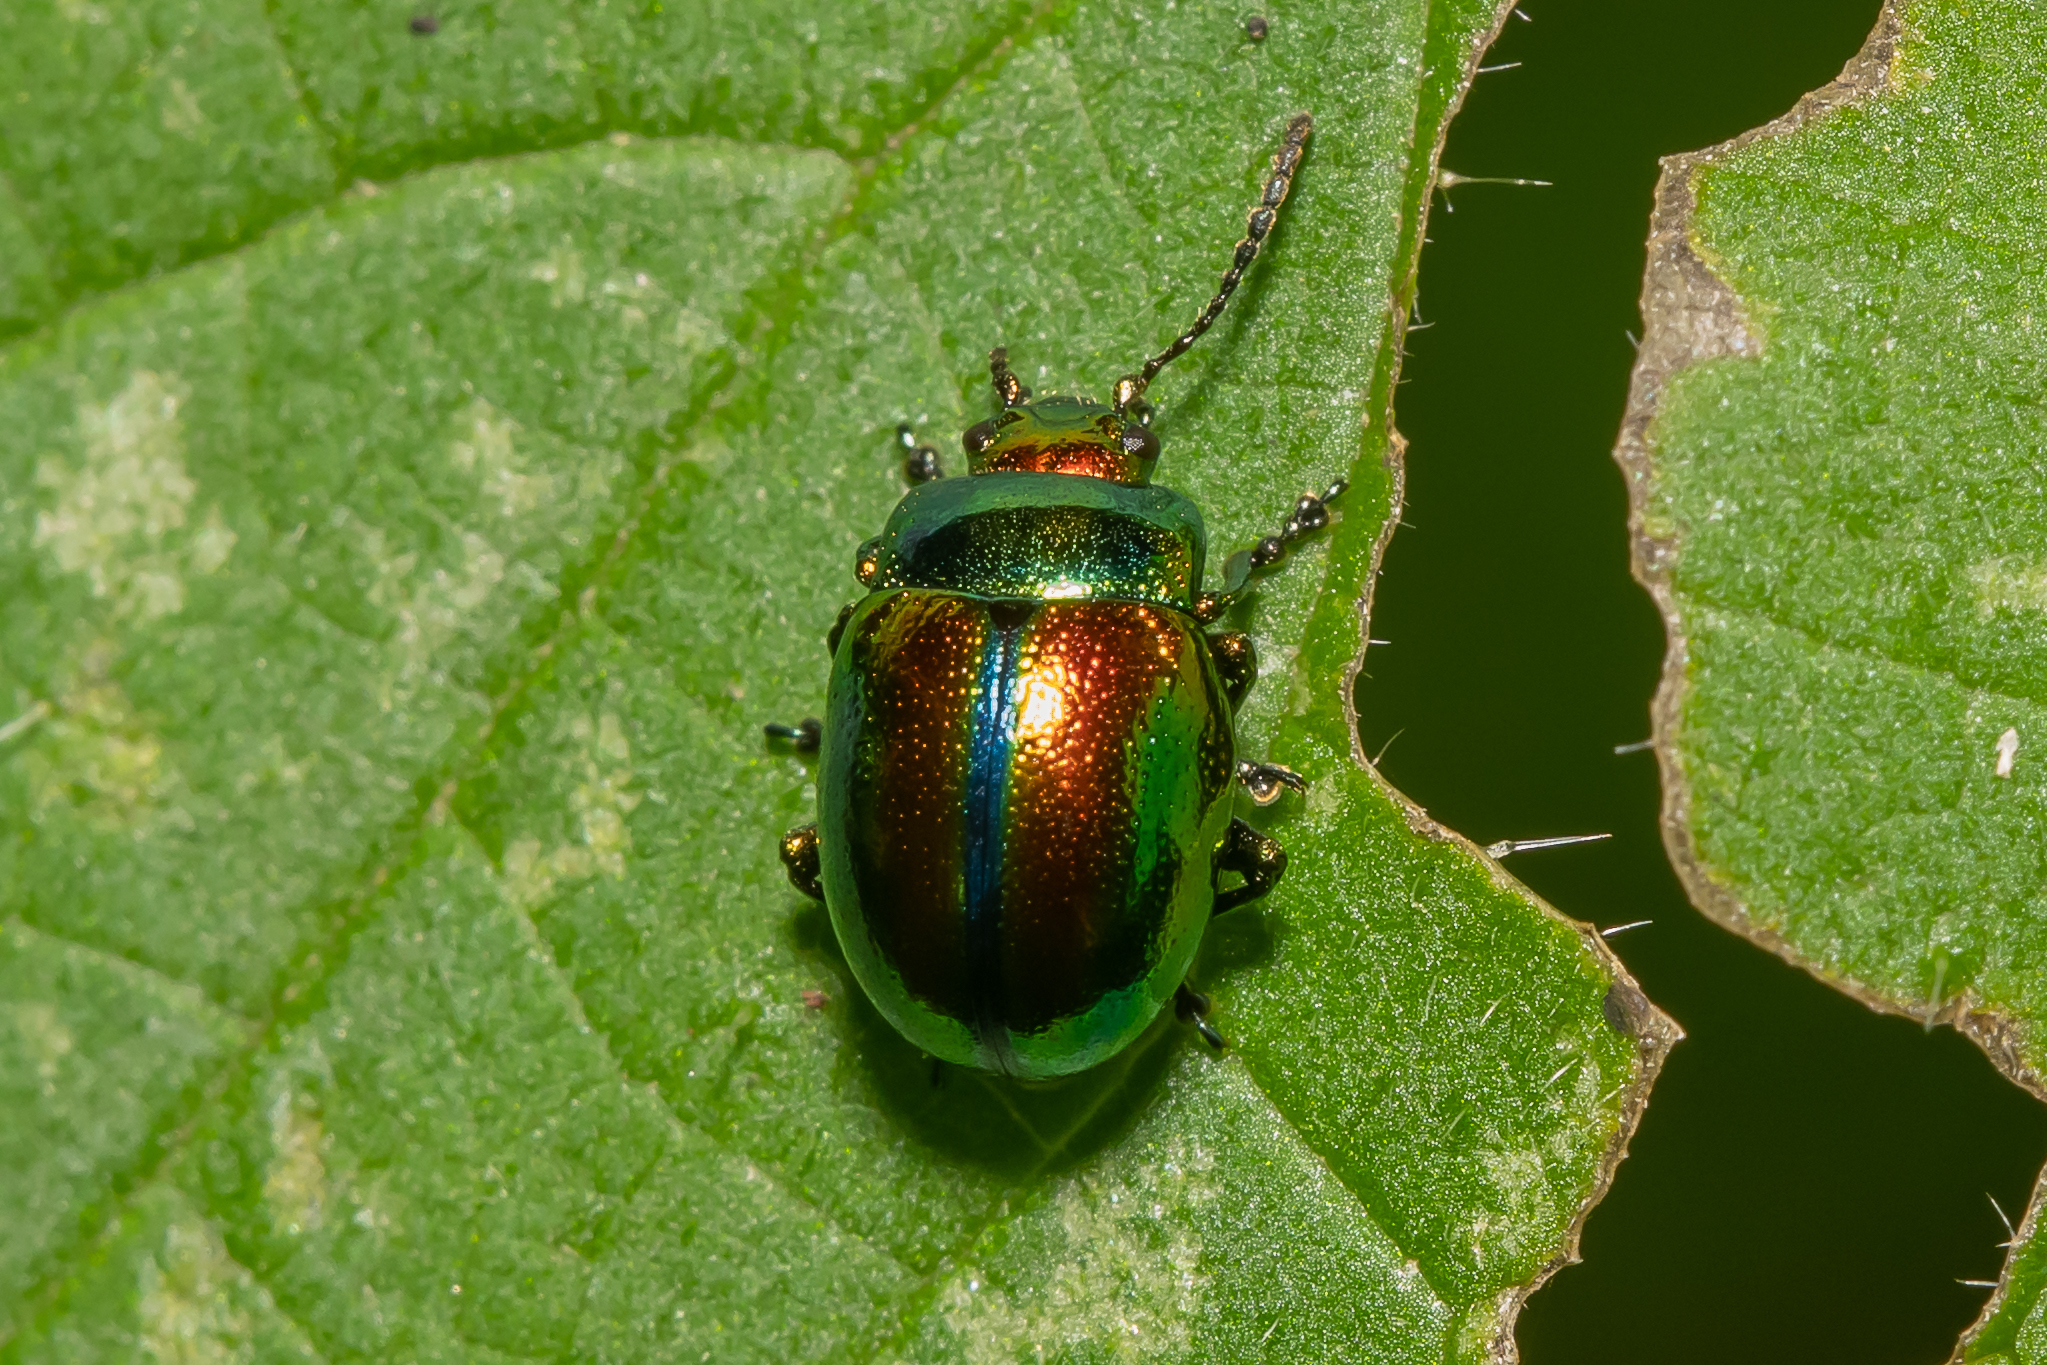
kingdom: Animalia
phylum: Arthropoda
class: Insecta
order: Coleoptera
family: Chrysomelidae
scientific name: Chrysomelidae
